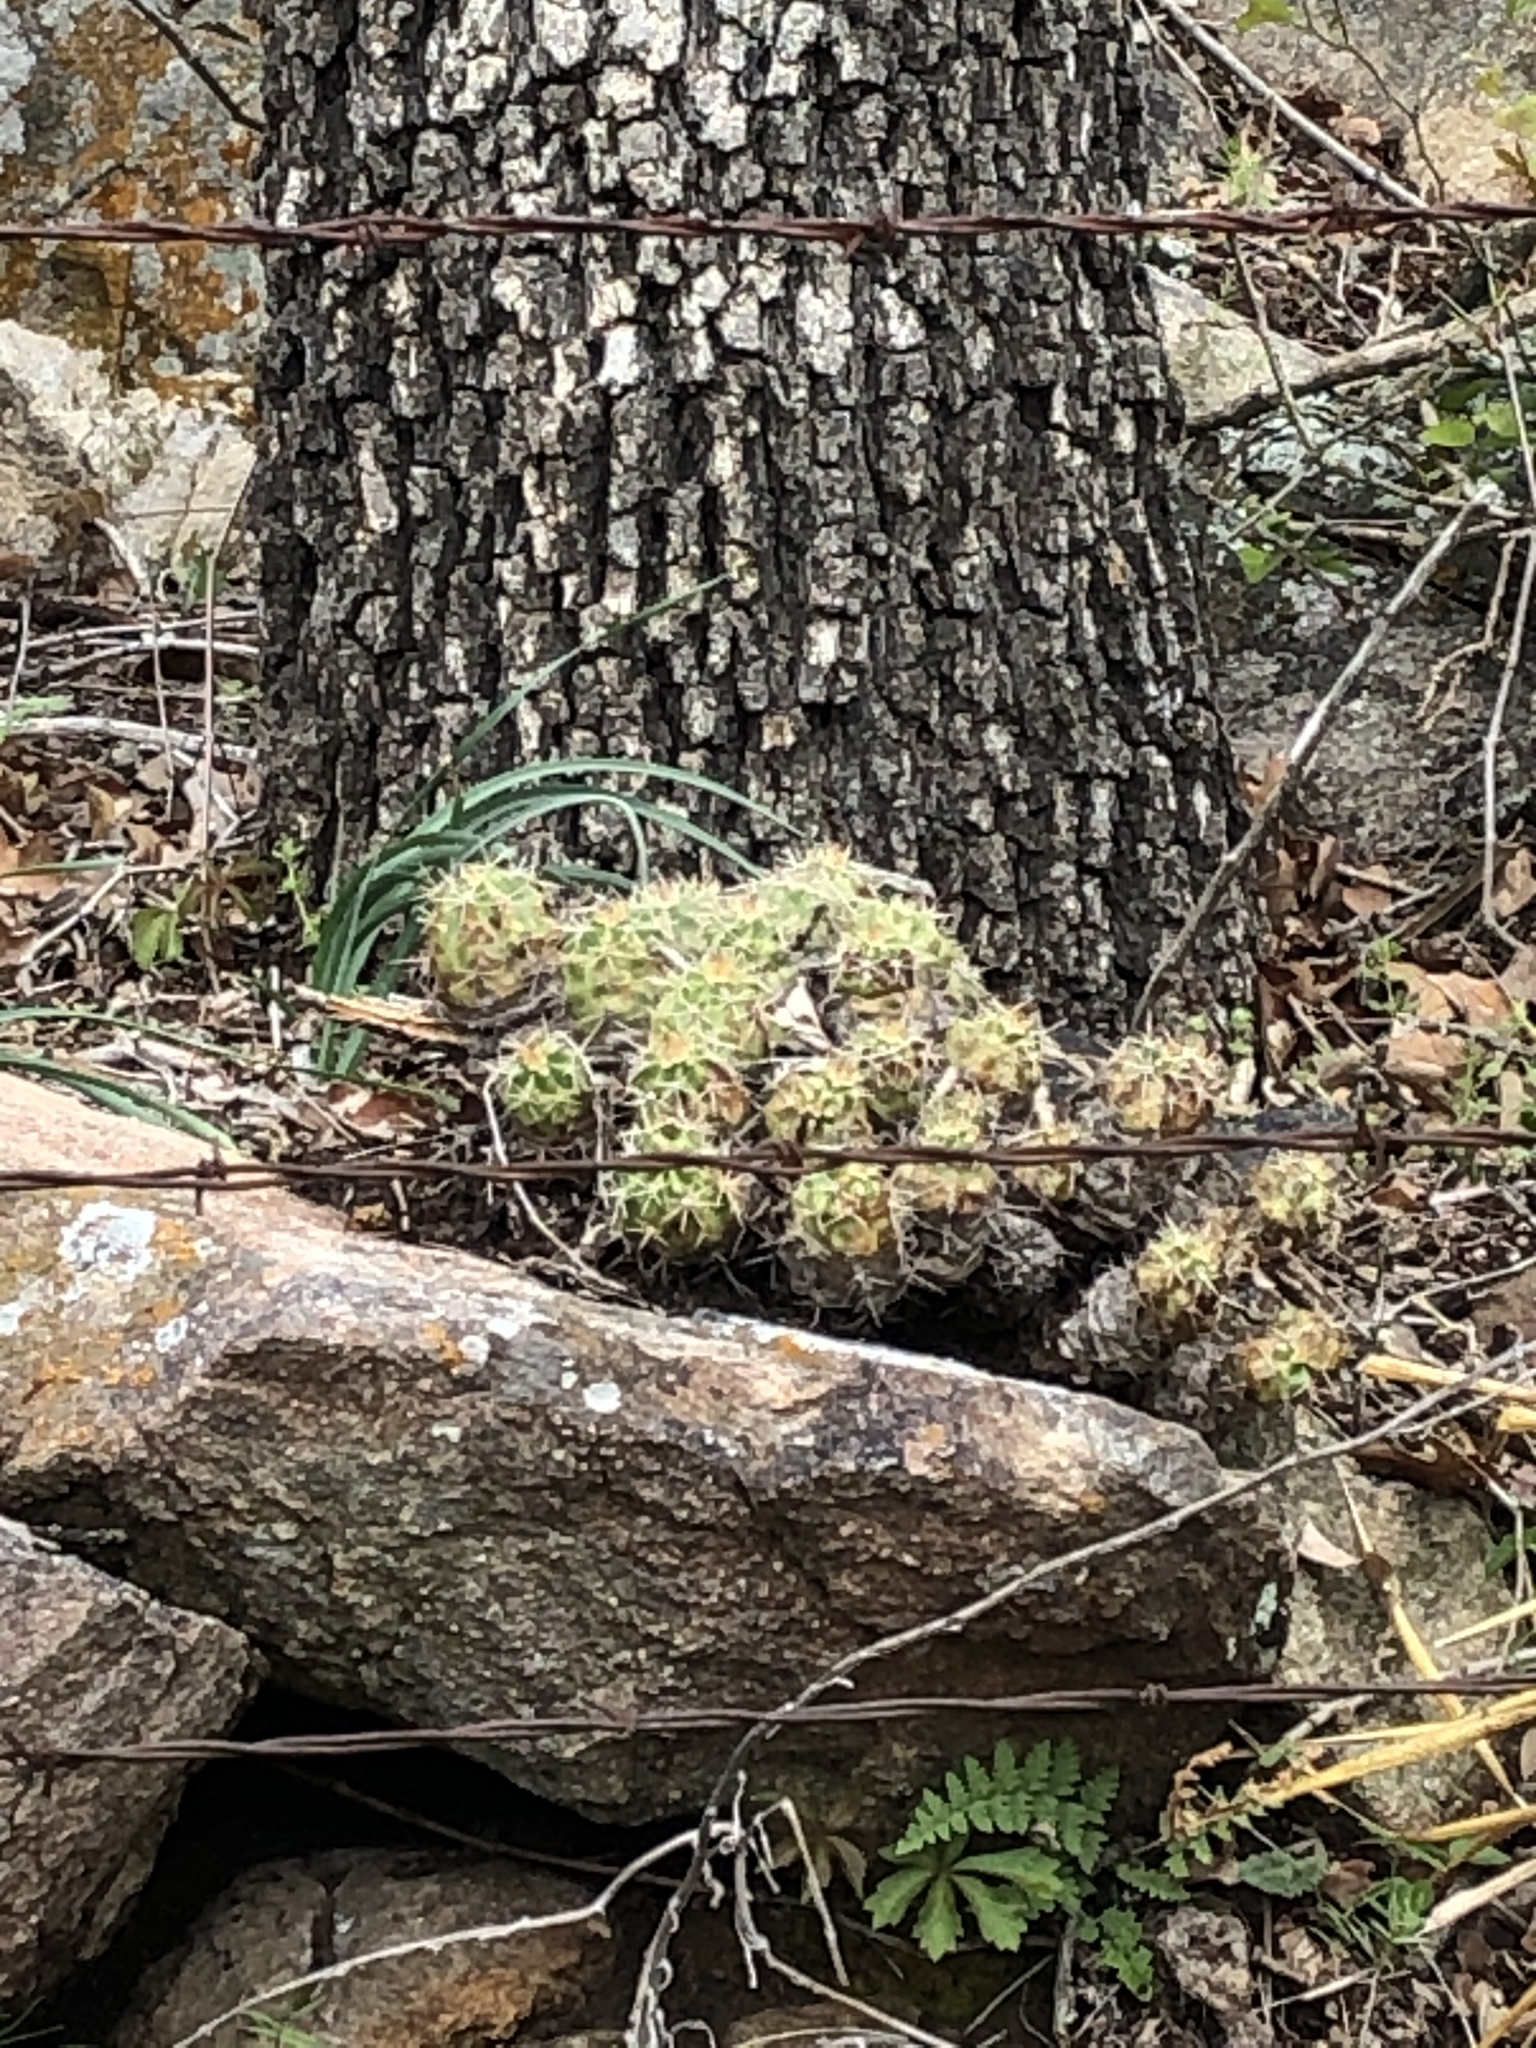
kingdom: Plantae
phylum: Tracheophyta
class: Magnoliopsida
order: Caryophyllales
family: Cactaceae
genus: Echinocereus
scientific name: Echinocereus coccineus
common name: Scarlet hedgehog cactus
